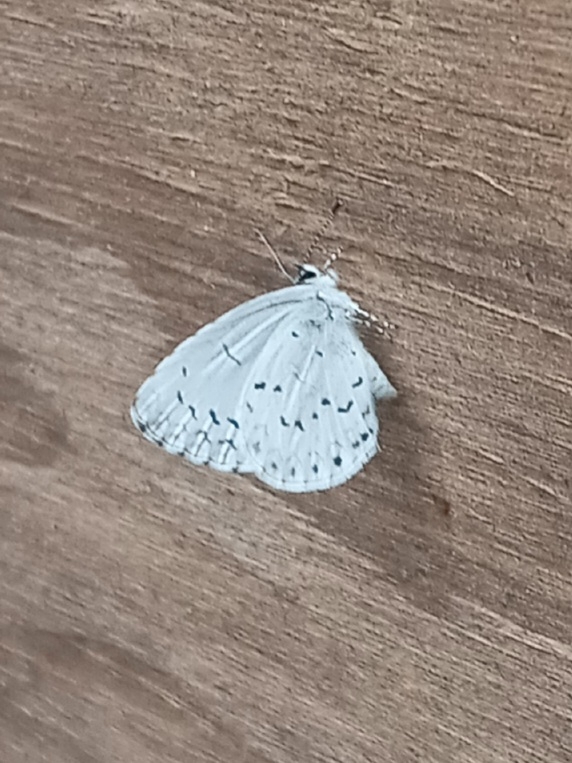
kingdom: Animalia
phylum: Arthropoda
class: Insecta
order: Lepidoptera
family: Lycaenidae
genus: Cyaniris
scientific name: Cyaniris neglecta
